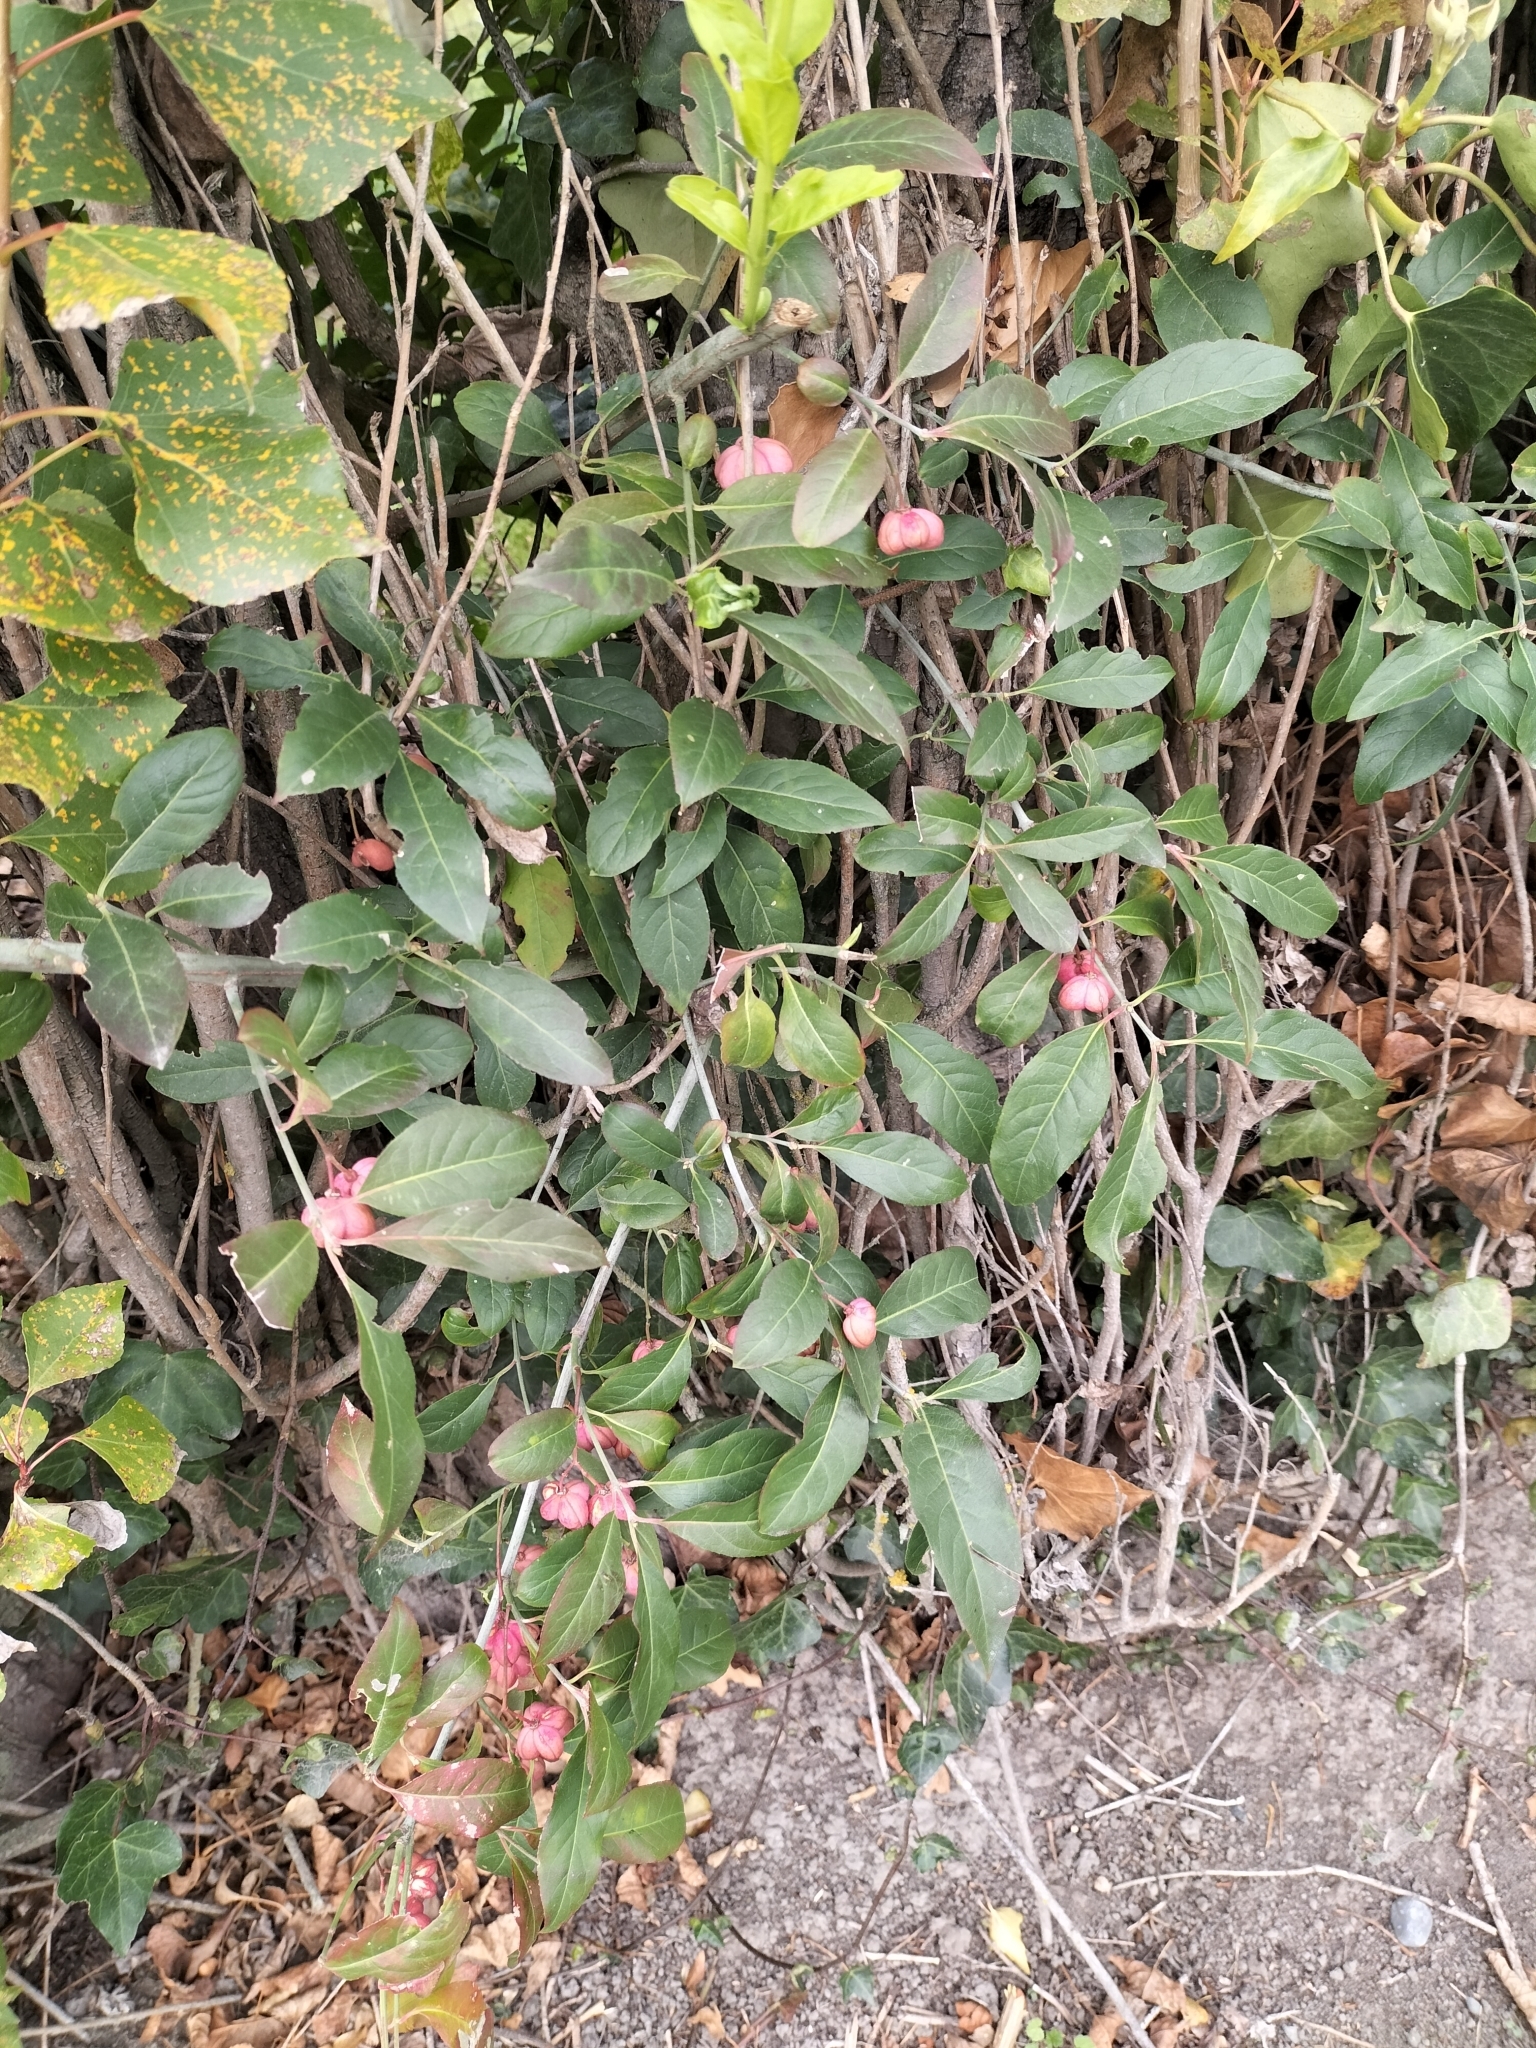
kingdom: Plantae
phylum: Tracheophyta
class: Magnoliopsida
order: Celastrales
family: Celastraceae
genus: Euonymus
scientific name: Euonymus europaeus
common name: Spindle
